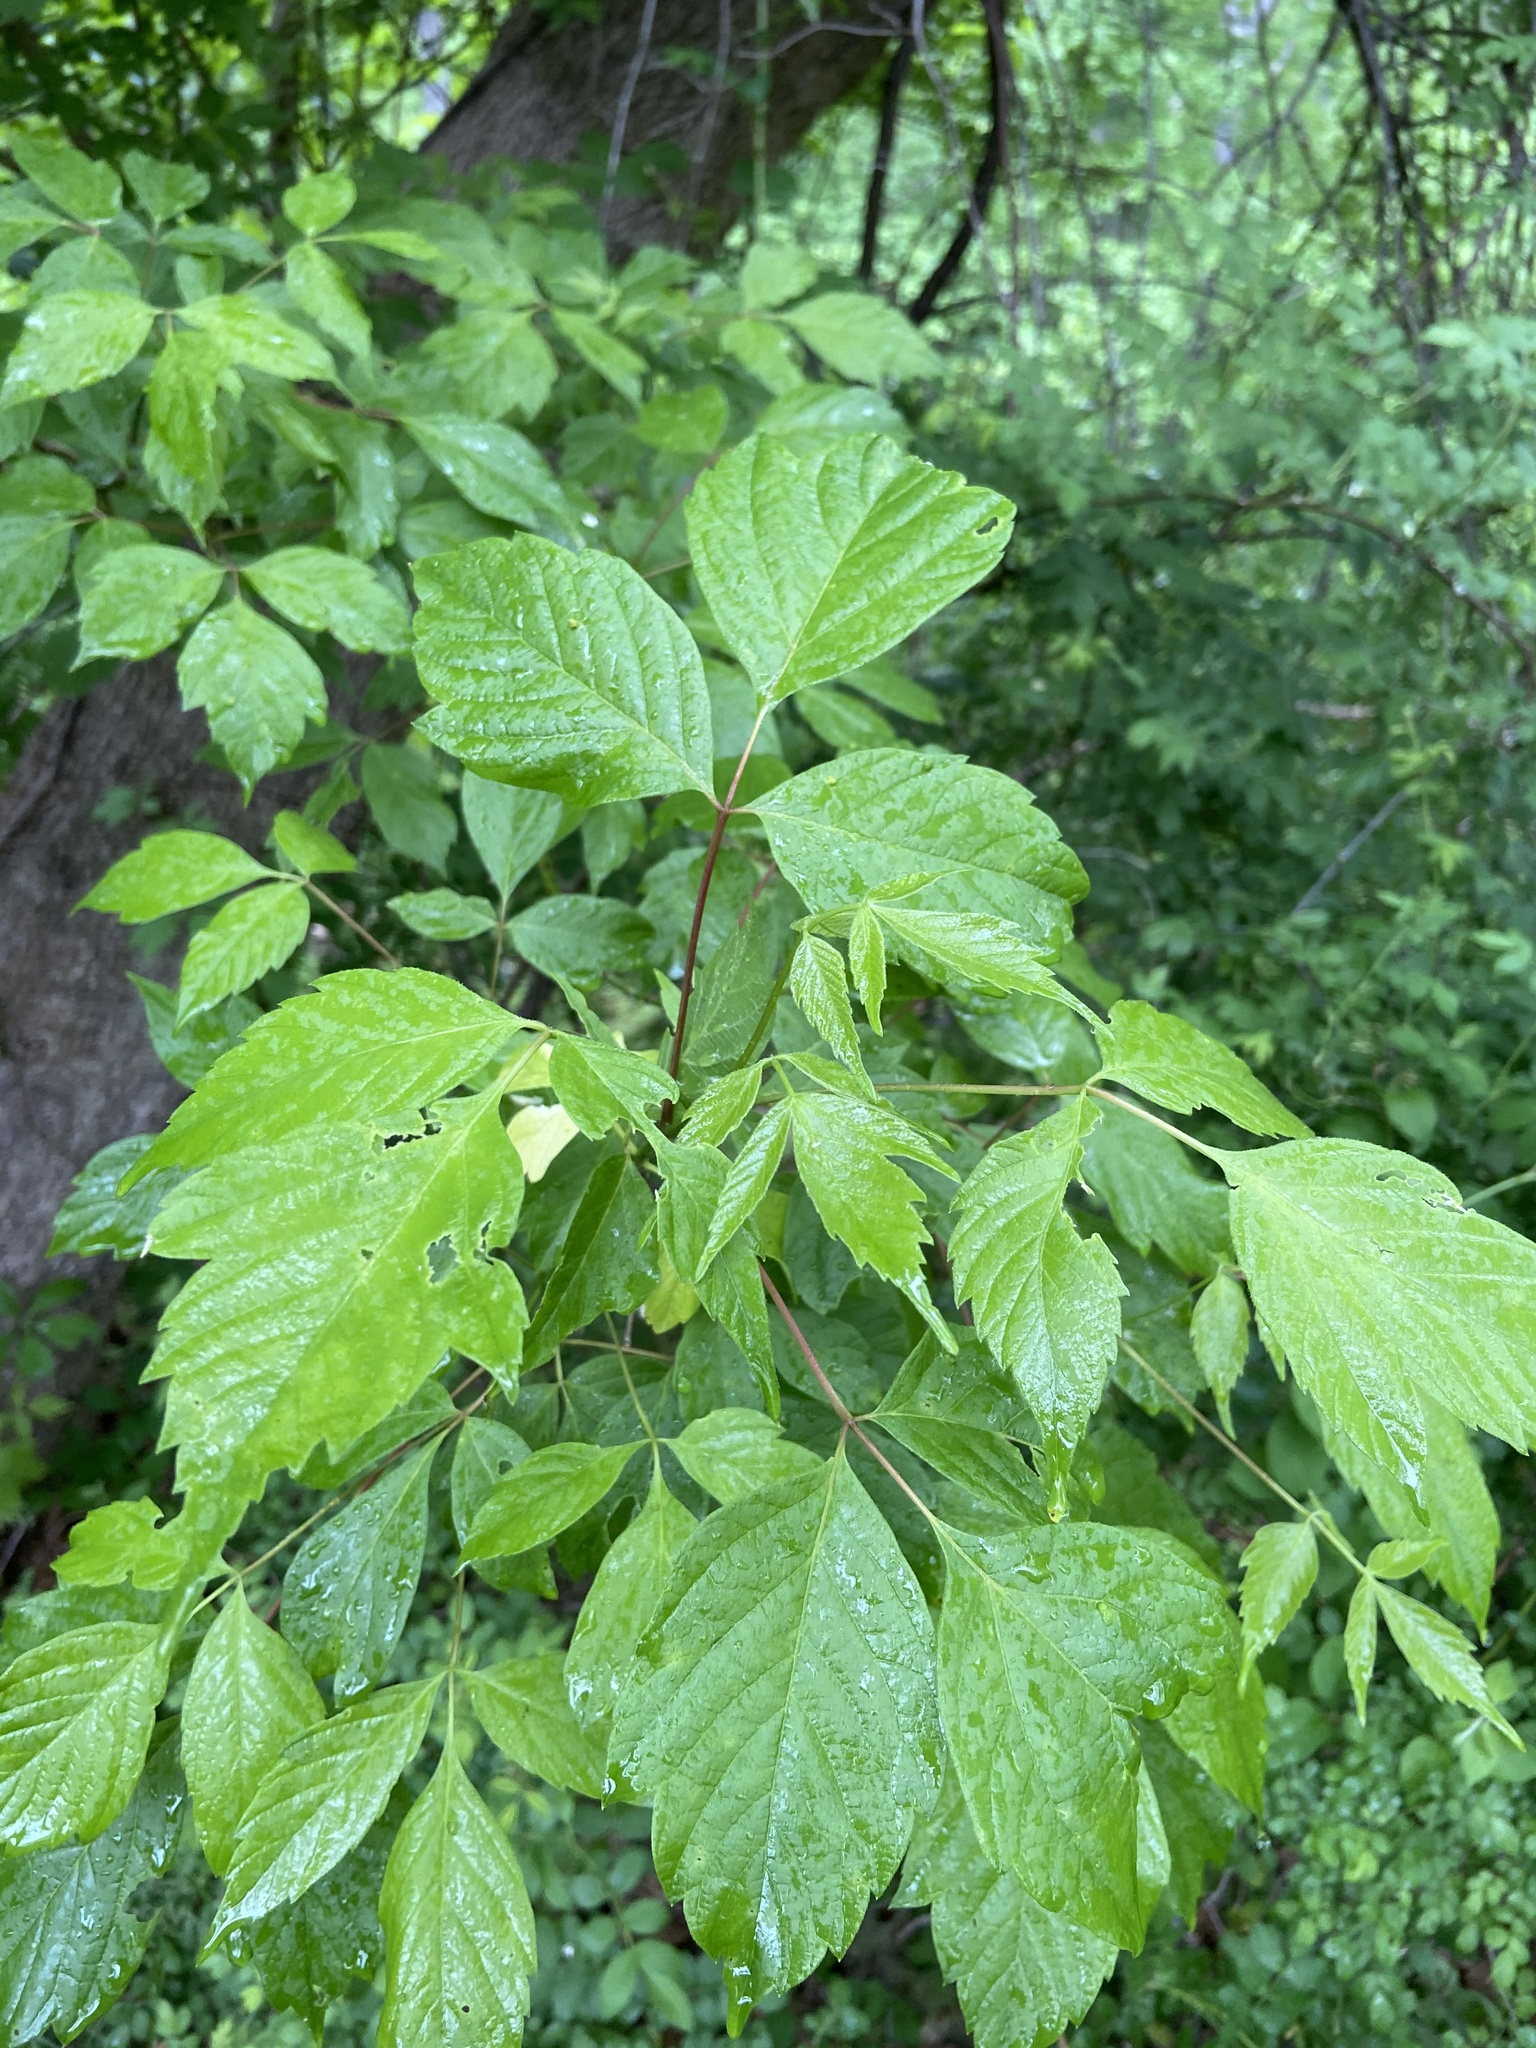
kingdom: Plantae
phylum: Tracheophyta
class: Magnoliopsida
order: Sapindales
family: Sapindaceae
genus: Acer
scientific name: Acer negundo
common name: Ashleaf maple
